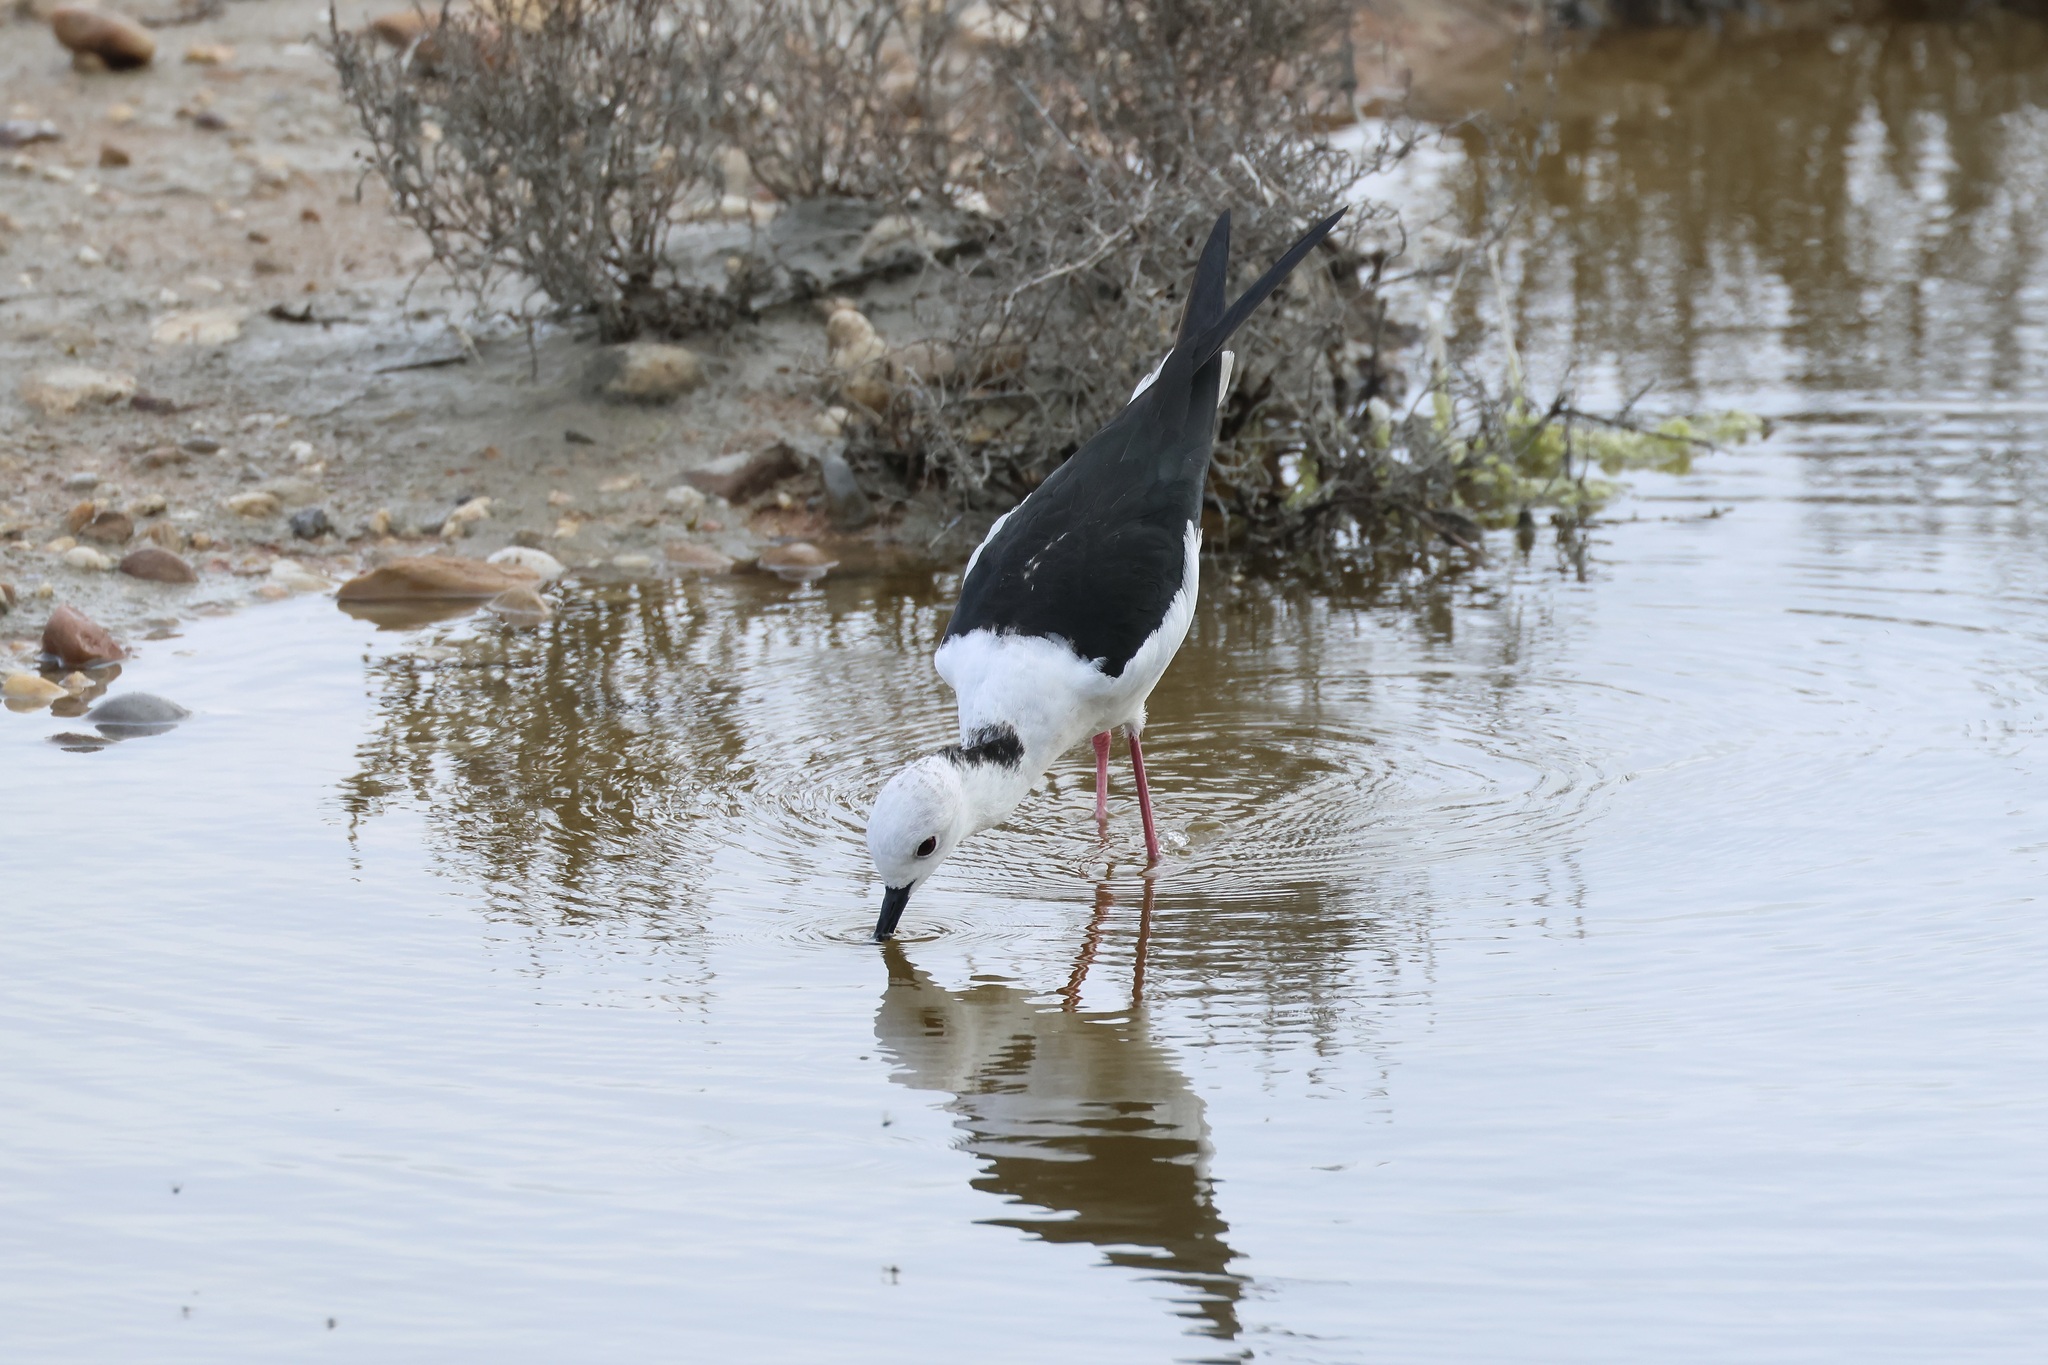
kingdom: Animalia
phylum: Chordata
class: Aves
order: Charadriiformes
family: Recurvirostridae
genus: Himantopus
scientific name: Himantopus himantopus
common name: Black-winged stilt
